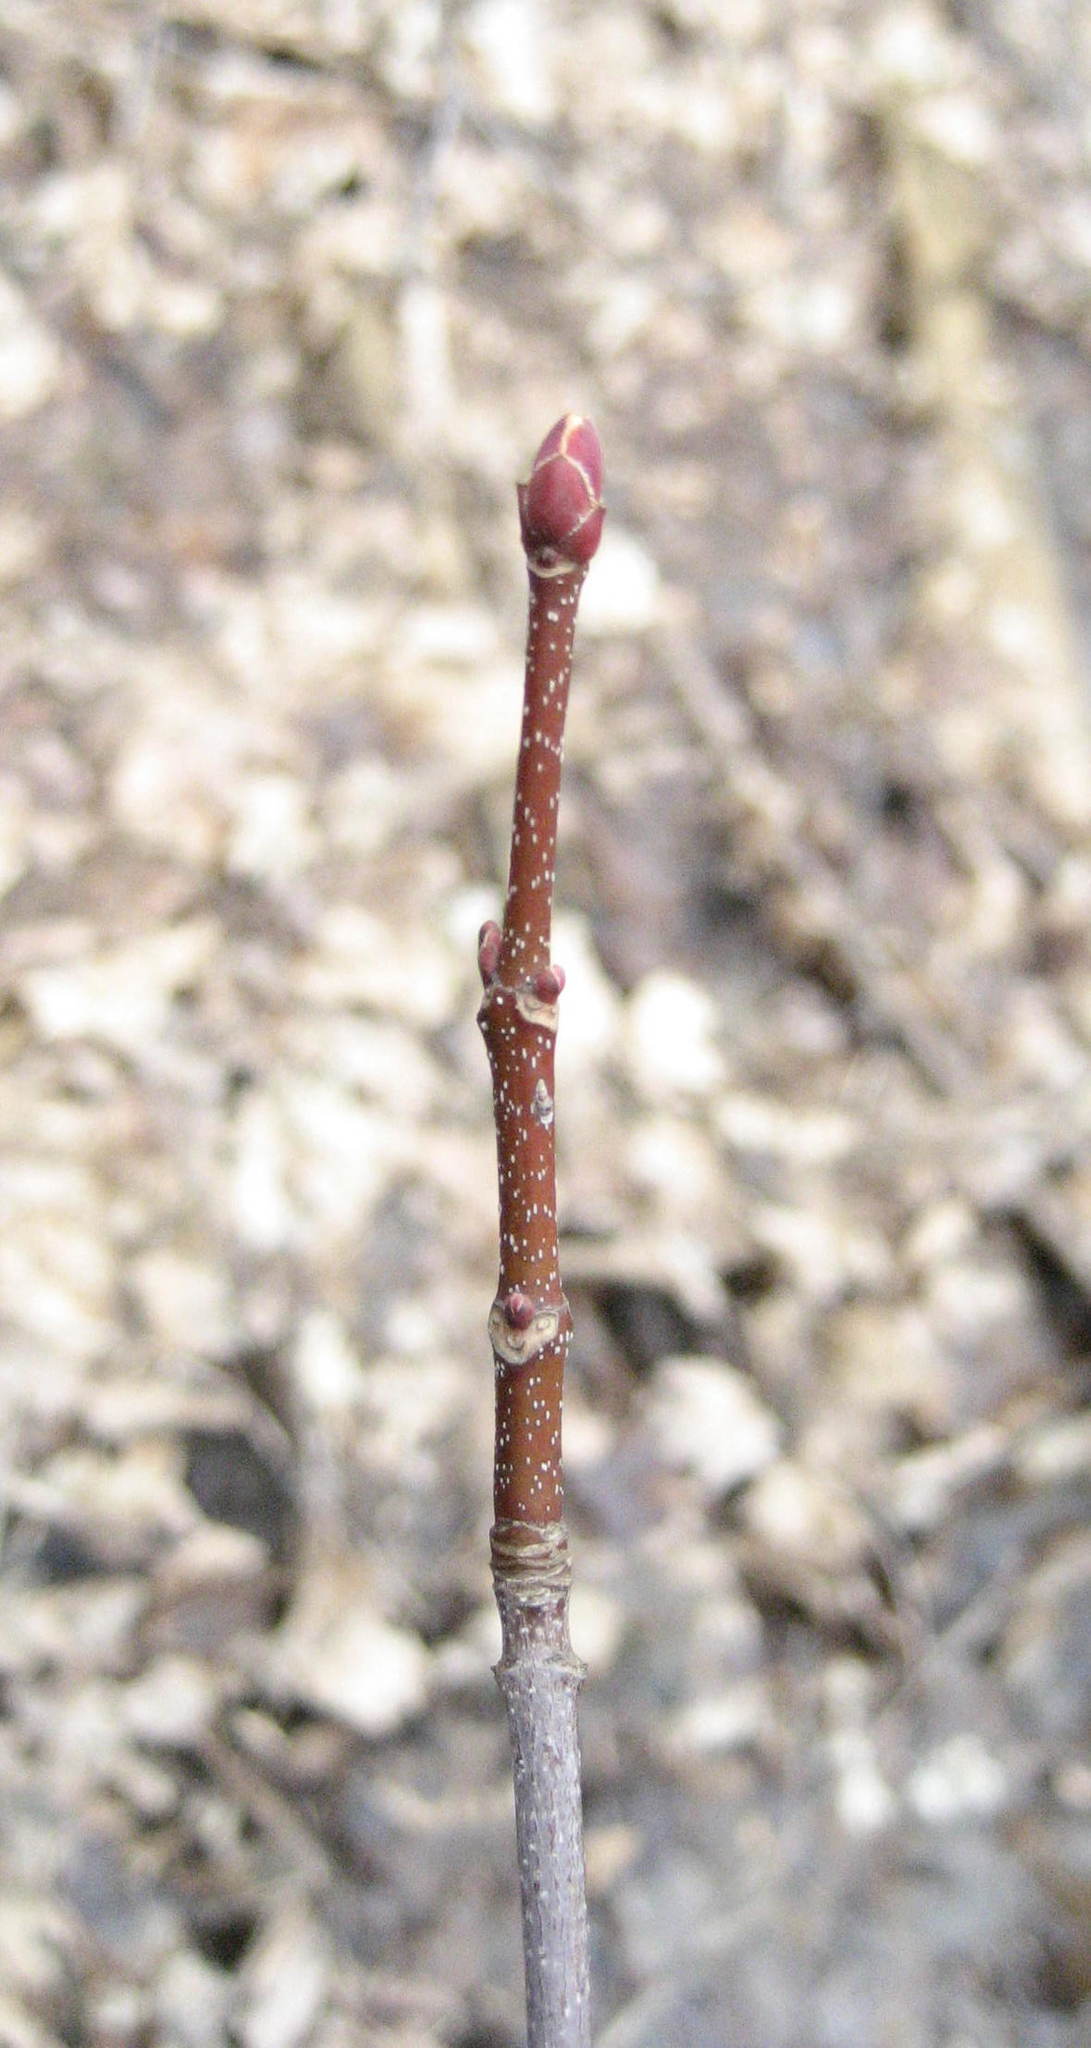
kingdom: Plantae
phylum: Tracheophyta
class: Magnoliopsida
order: Sapindales
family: Sapindaceae
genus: Acer
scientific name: Acer rubrum
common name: Red maple
